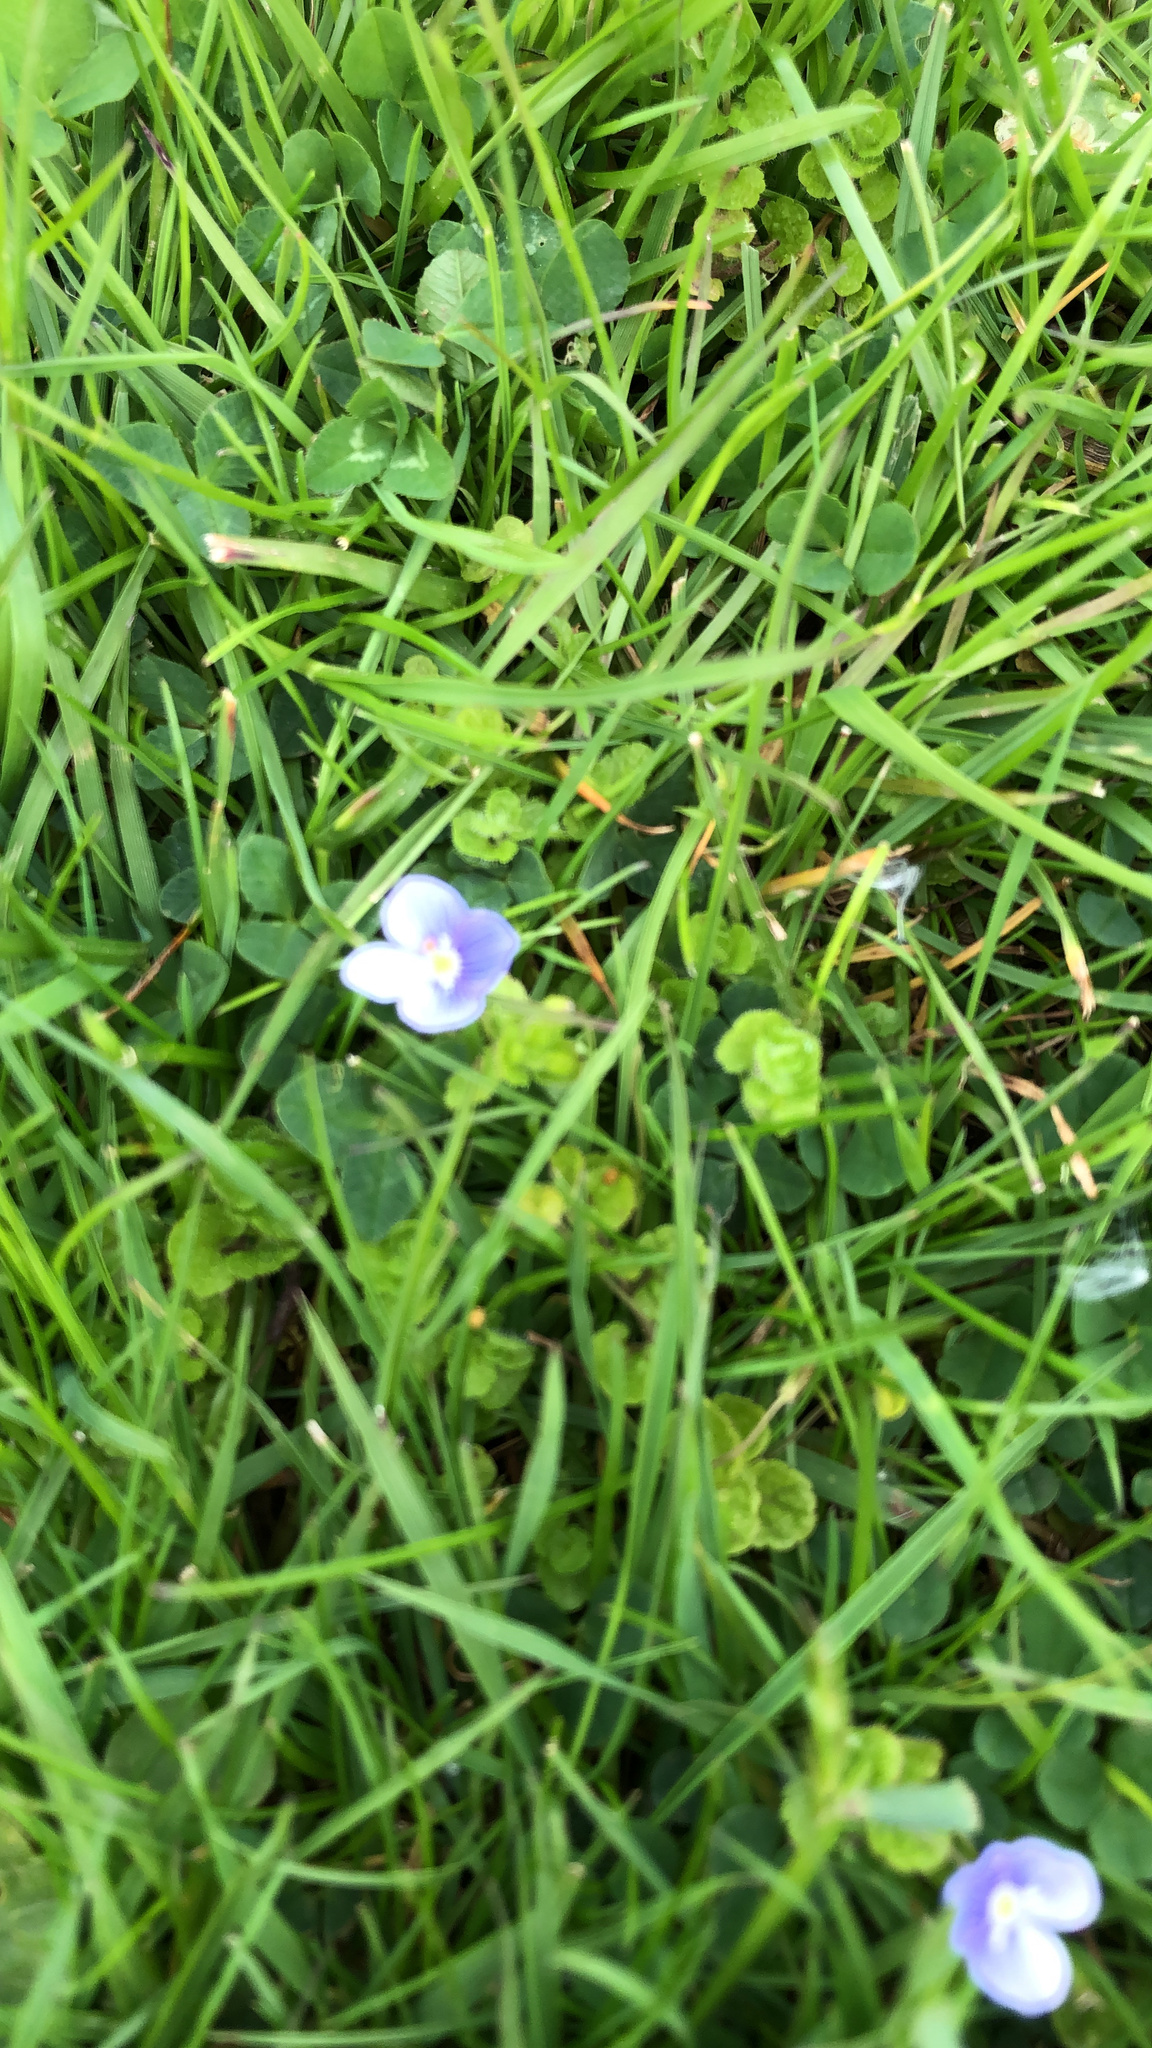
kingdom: Plantae
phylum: Tracheophyta
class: Magnoliopsida
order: Lamiales
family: Plantaginaceae
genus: Veronica
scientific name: Veronica filiformis
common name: Slender speedwell
